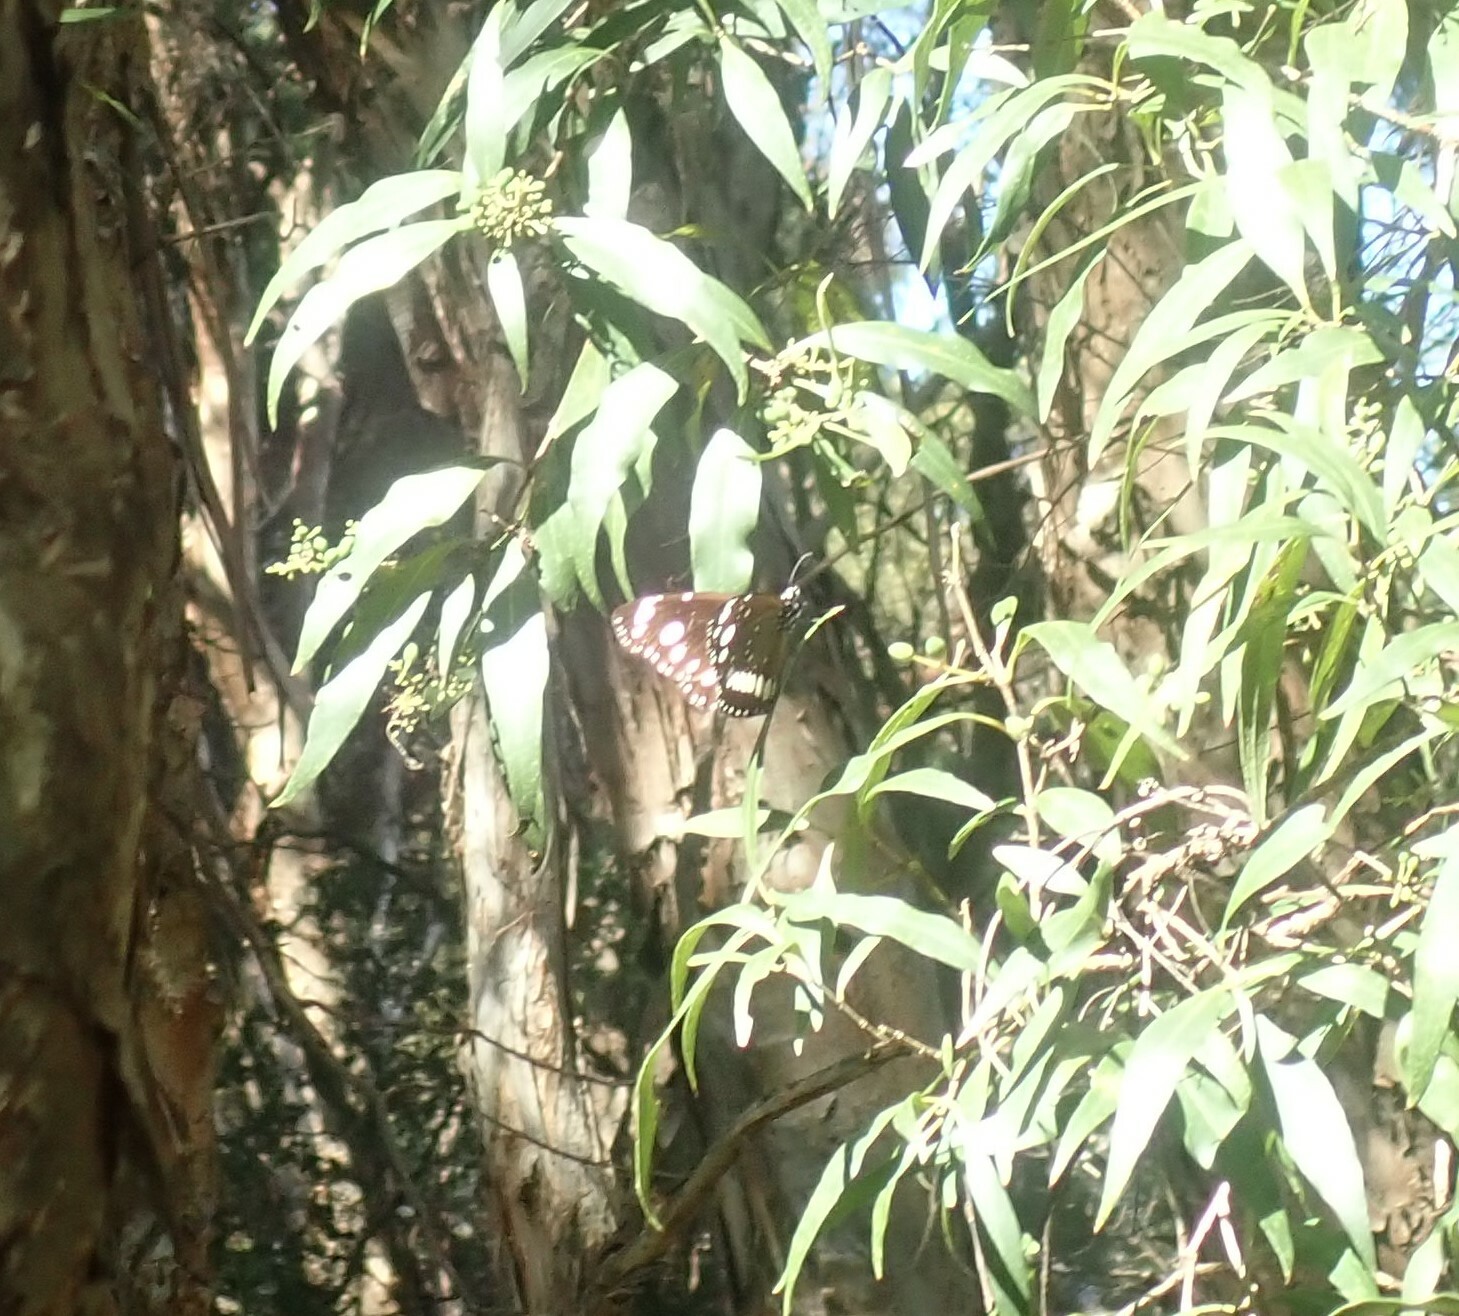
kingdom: Animalia
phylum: Arthropoda
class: Insecta
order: Lepidoptera
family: Nymphalidae
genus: Euploea
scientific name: Euploea core
